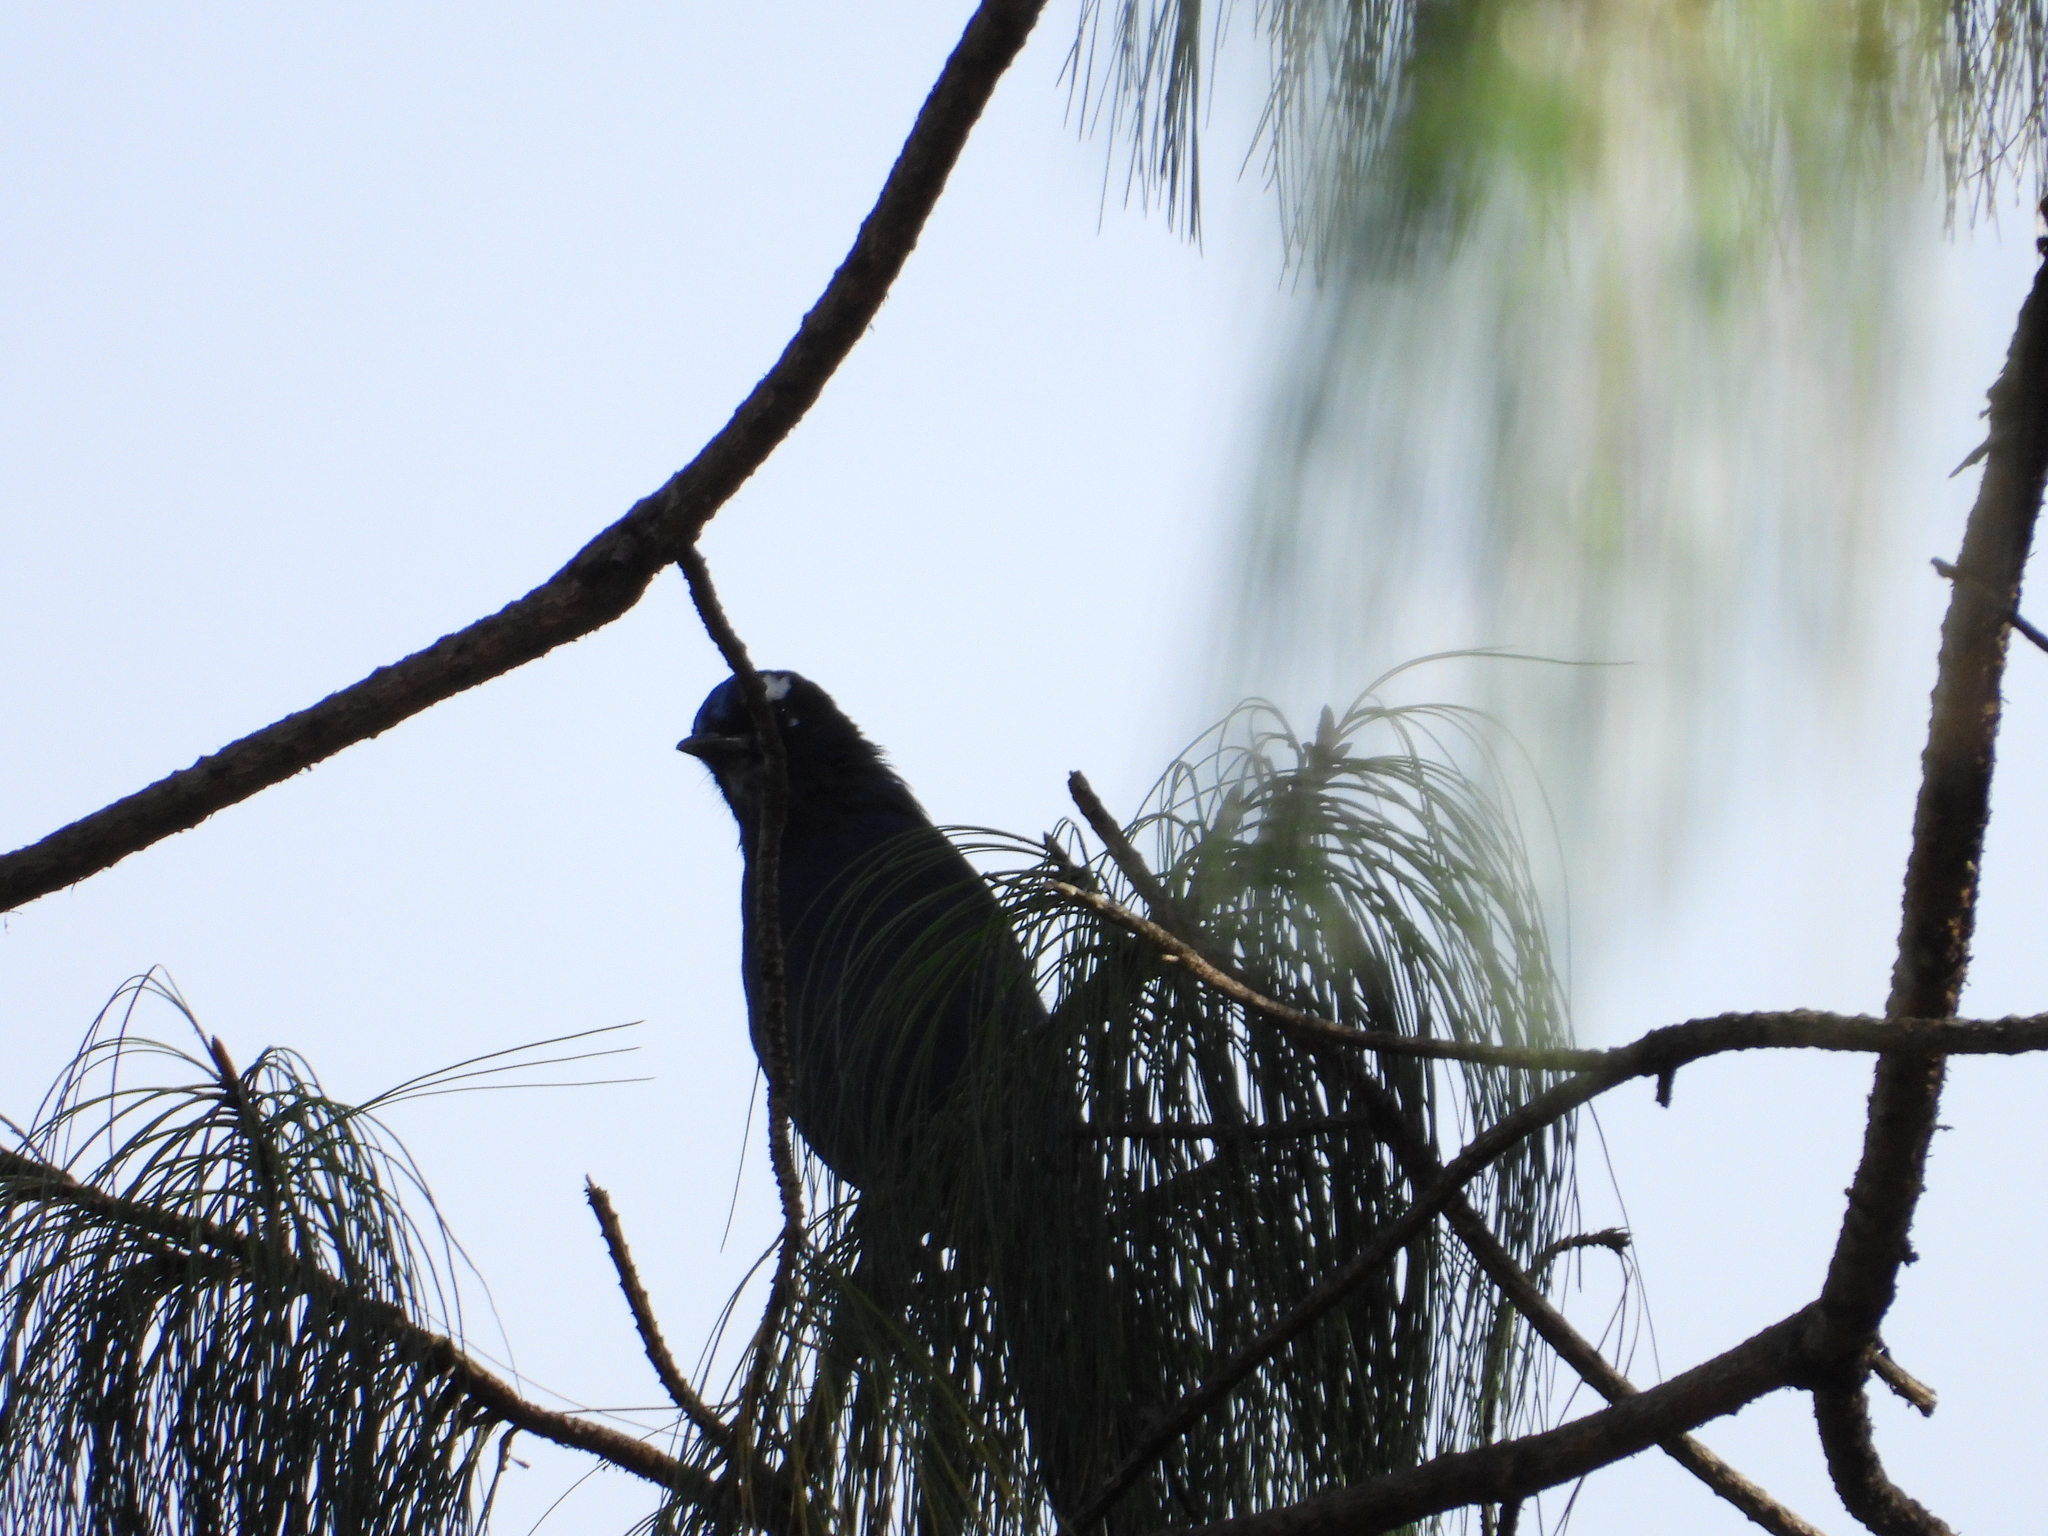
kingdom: Animalia
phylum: Chordata
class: Aves
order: Passeriformes
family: Corvidae
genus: Cyanocitta
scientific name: Cyanocitta stelleri
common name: Steller's jay
